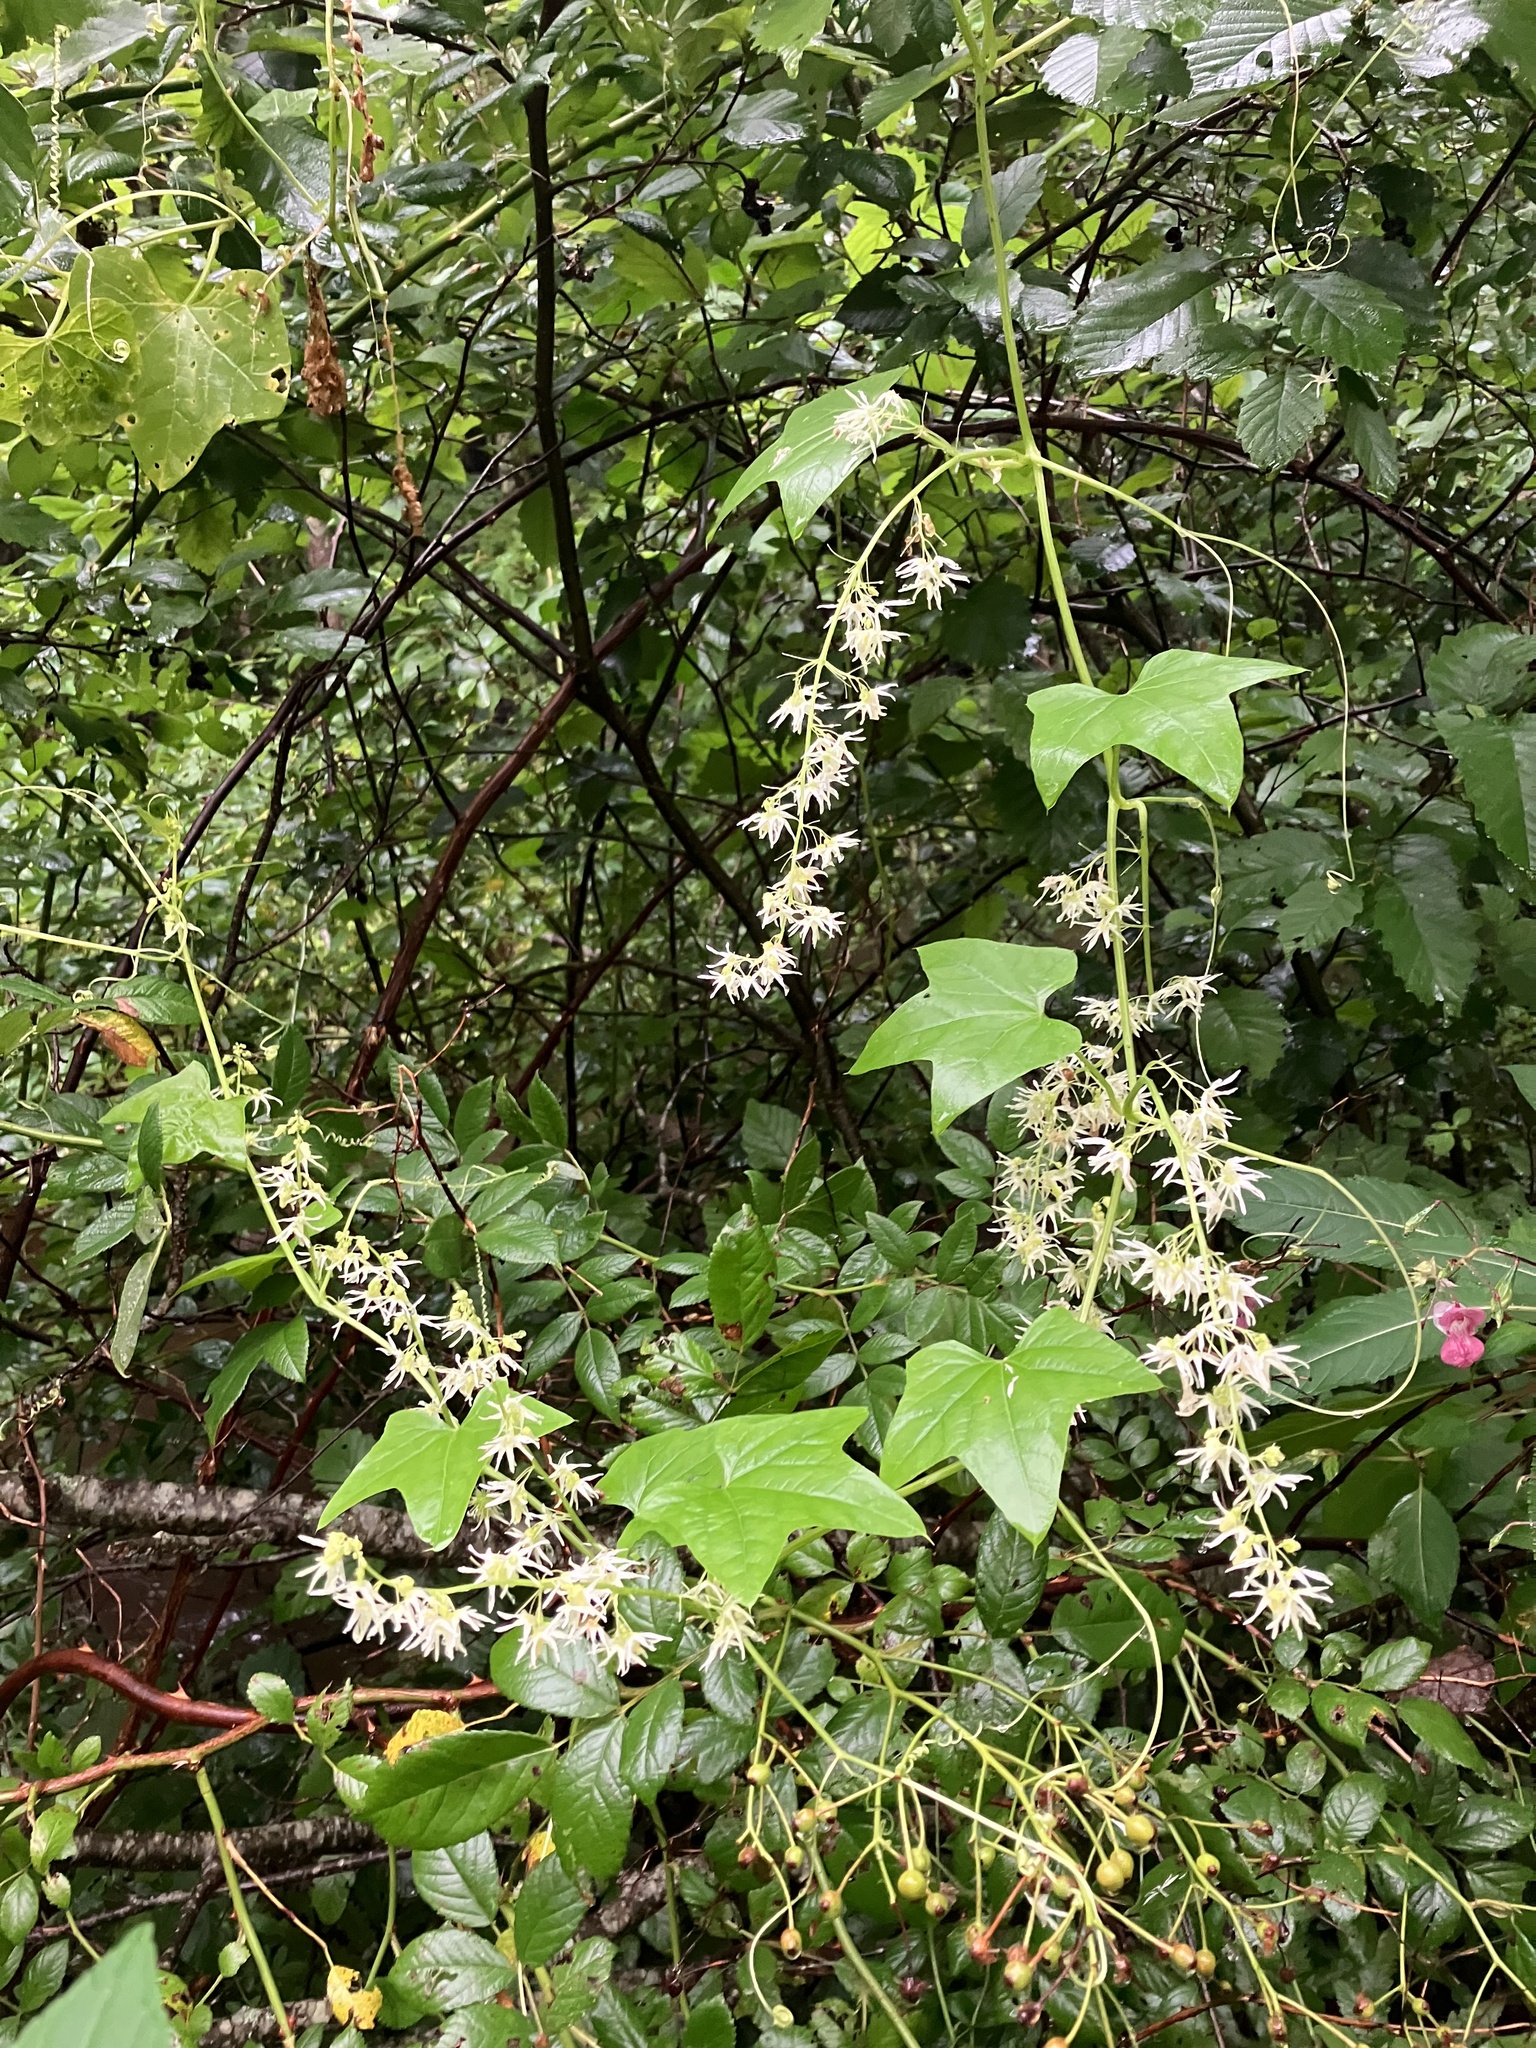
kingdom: Plantae
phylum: Tracheophyta
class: Magnoliopsida
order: Cucurbitales
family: Cucurbitaceae
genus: Echinocystis
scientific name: Echinocystis lobata
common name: Wild cucumber
